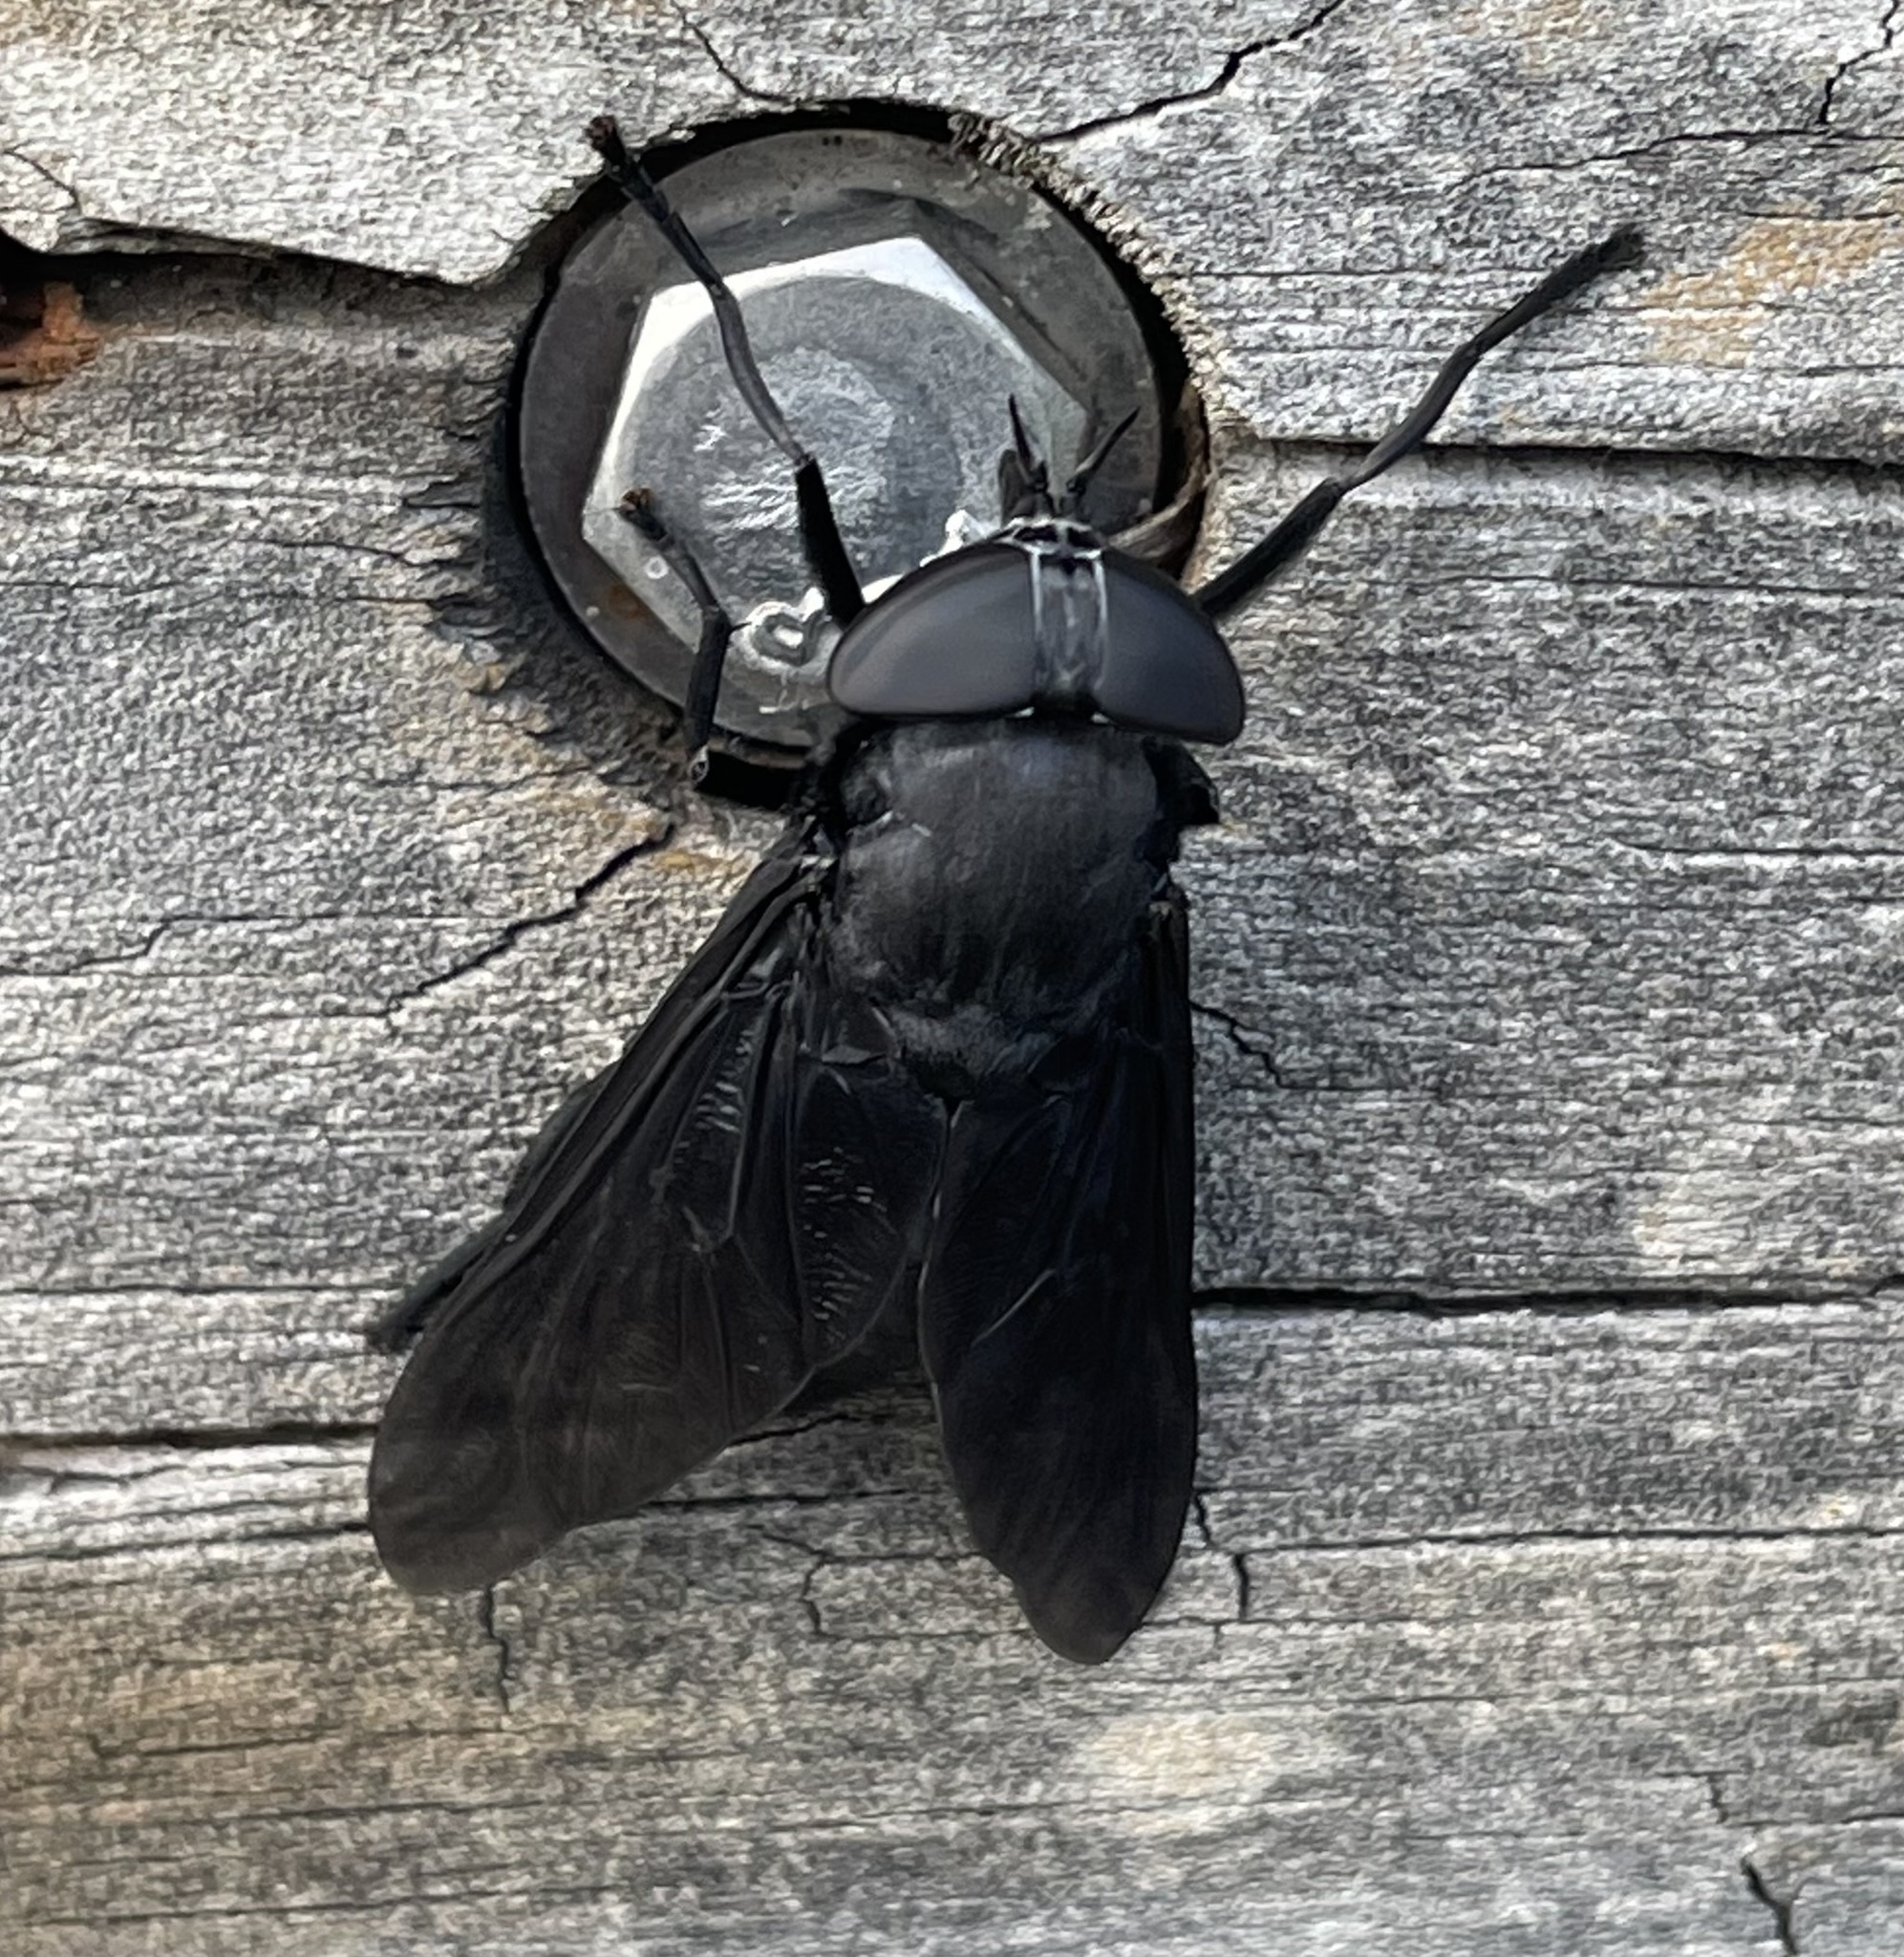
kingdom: Animalia
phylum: Arthropoda
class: Insecta
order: Diptera
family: Tabanidae
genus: Tabanus
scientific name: Tabanus atratus
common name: Black horse fly
